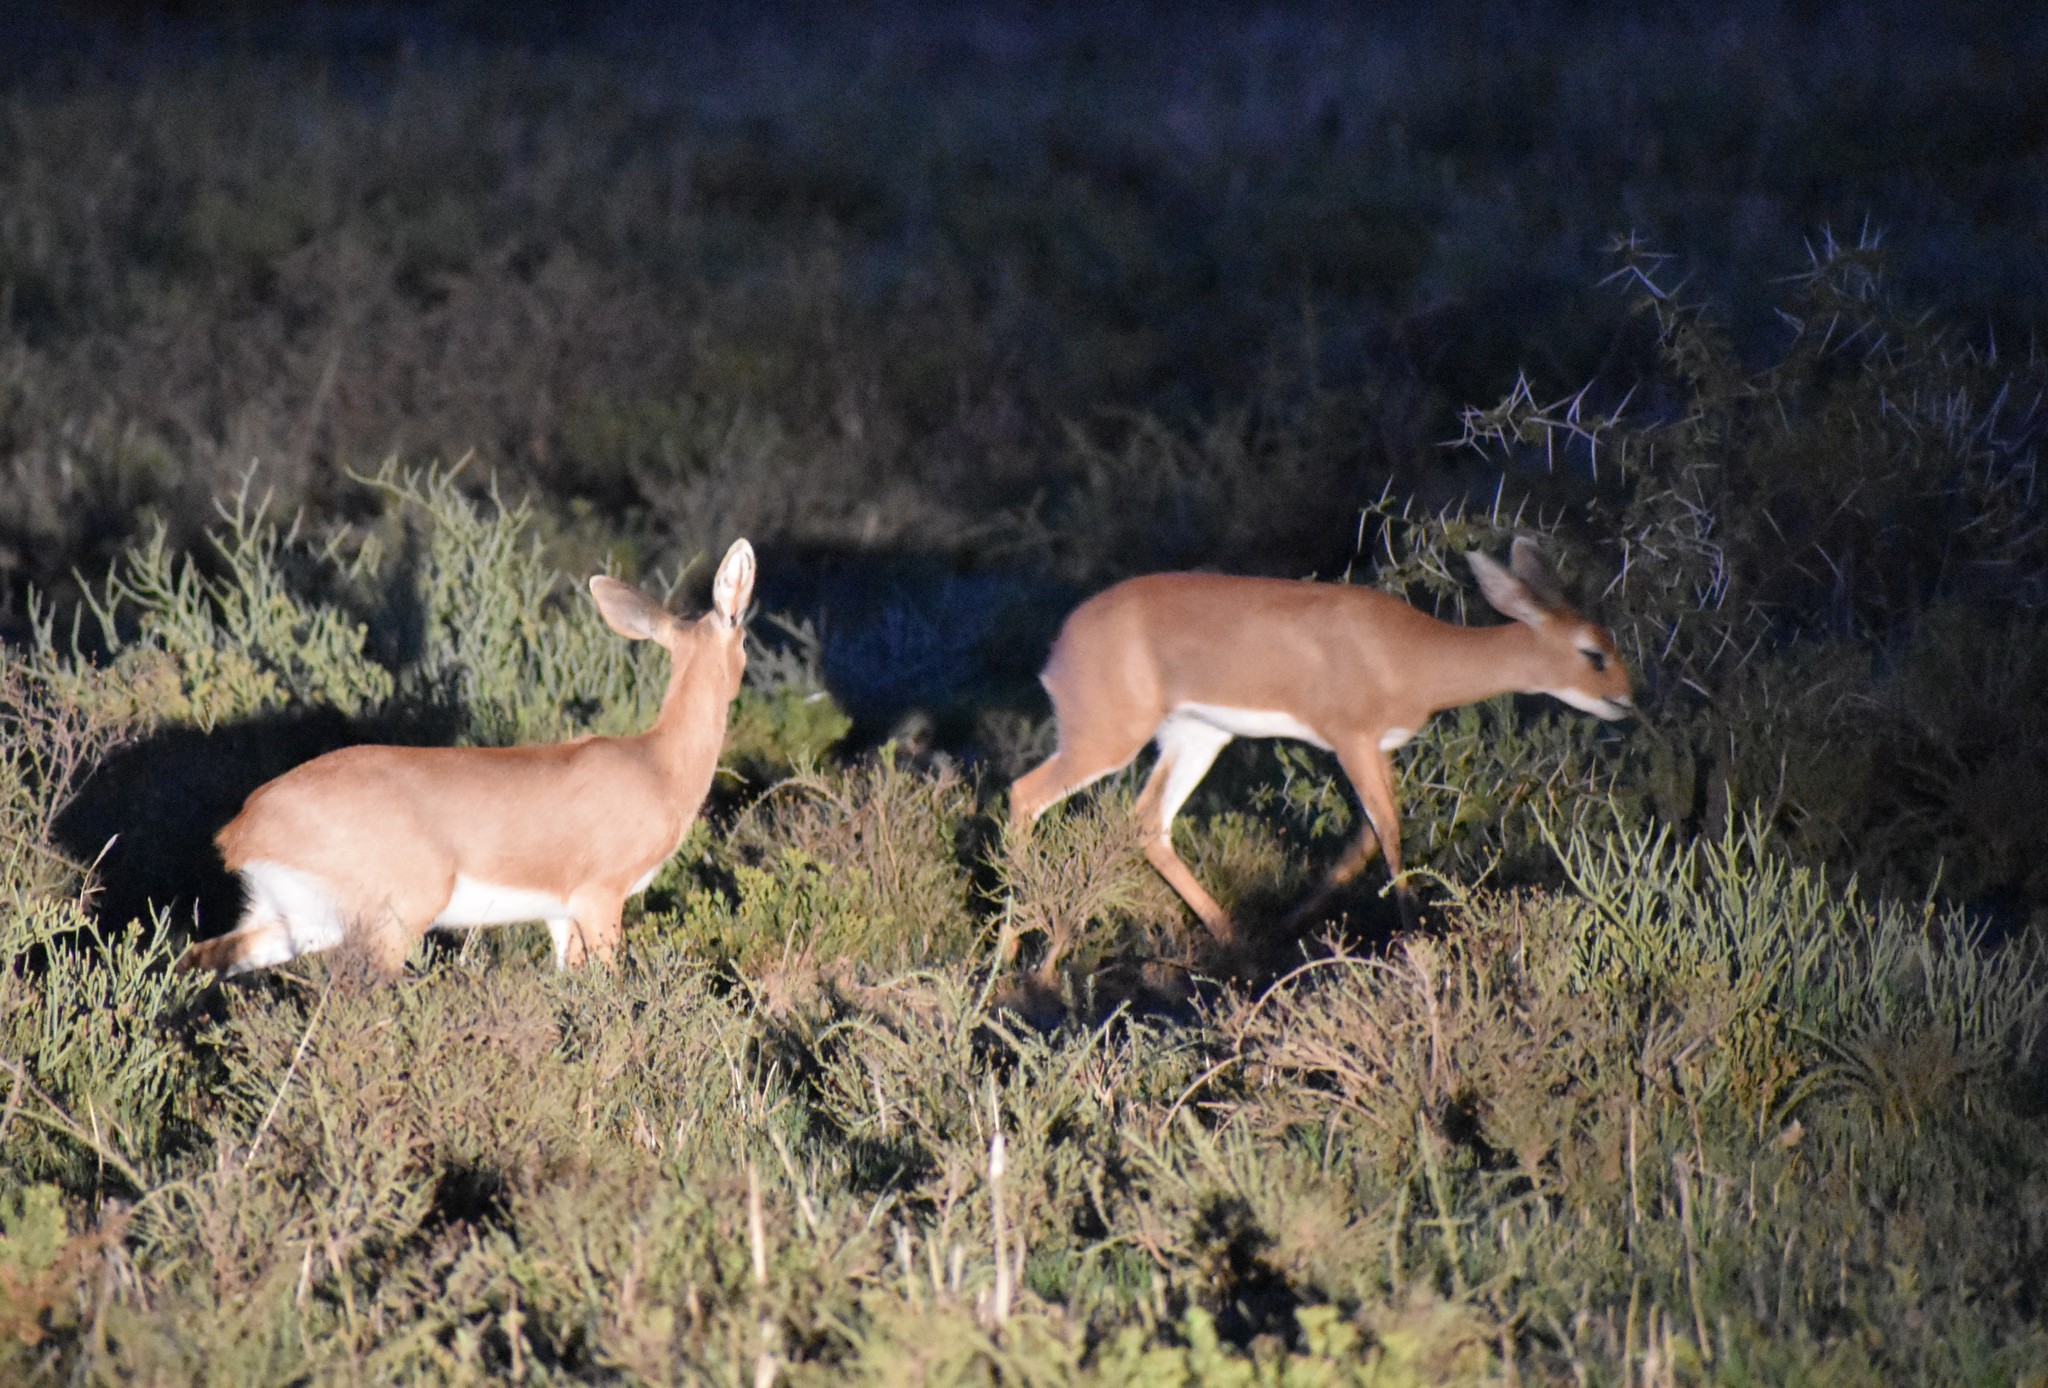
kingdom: Animalia
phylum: Chordata
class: Mammalia
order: Artiodactyla
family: Bovidae
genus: Raphicerus
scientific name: Raphicerus campestris
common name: Steenbok
